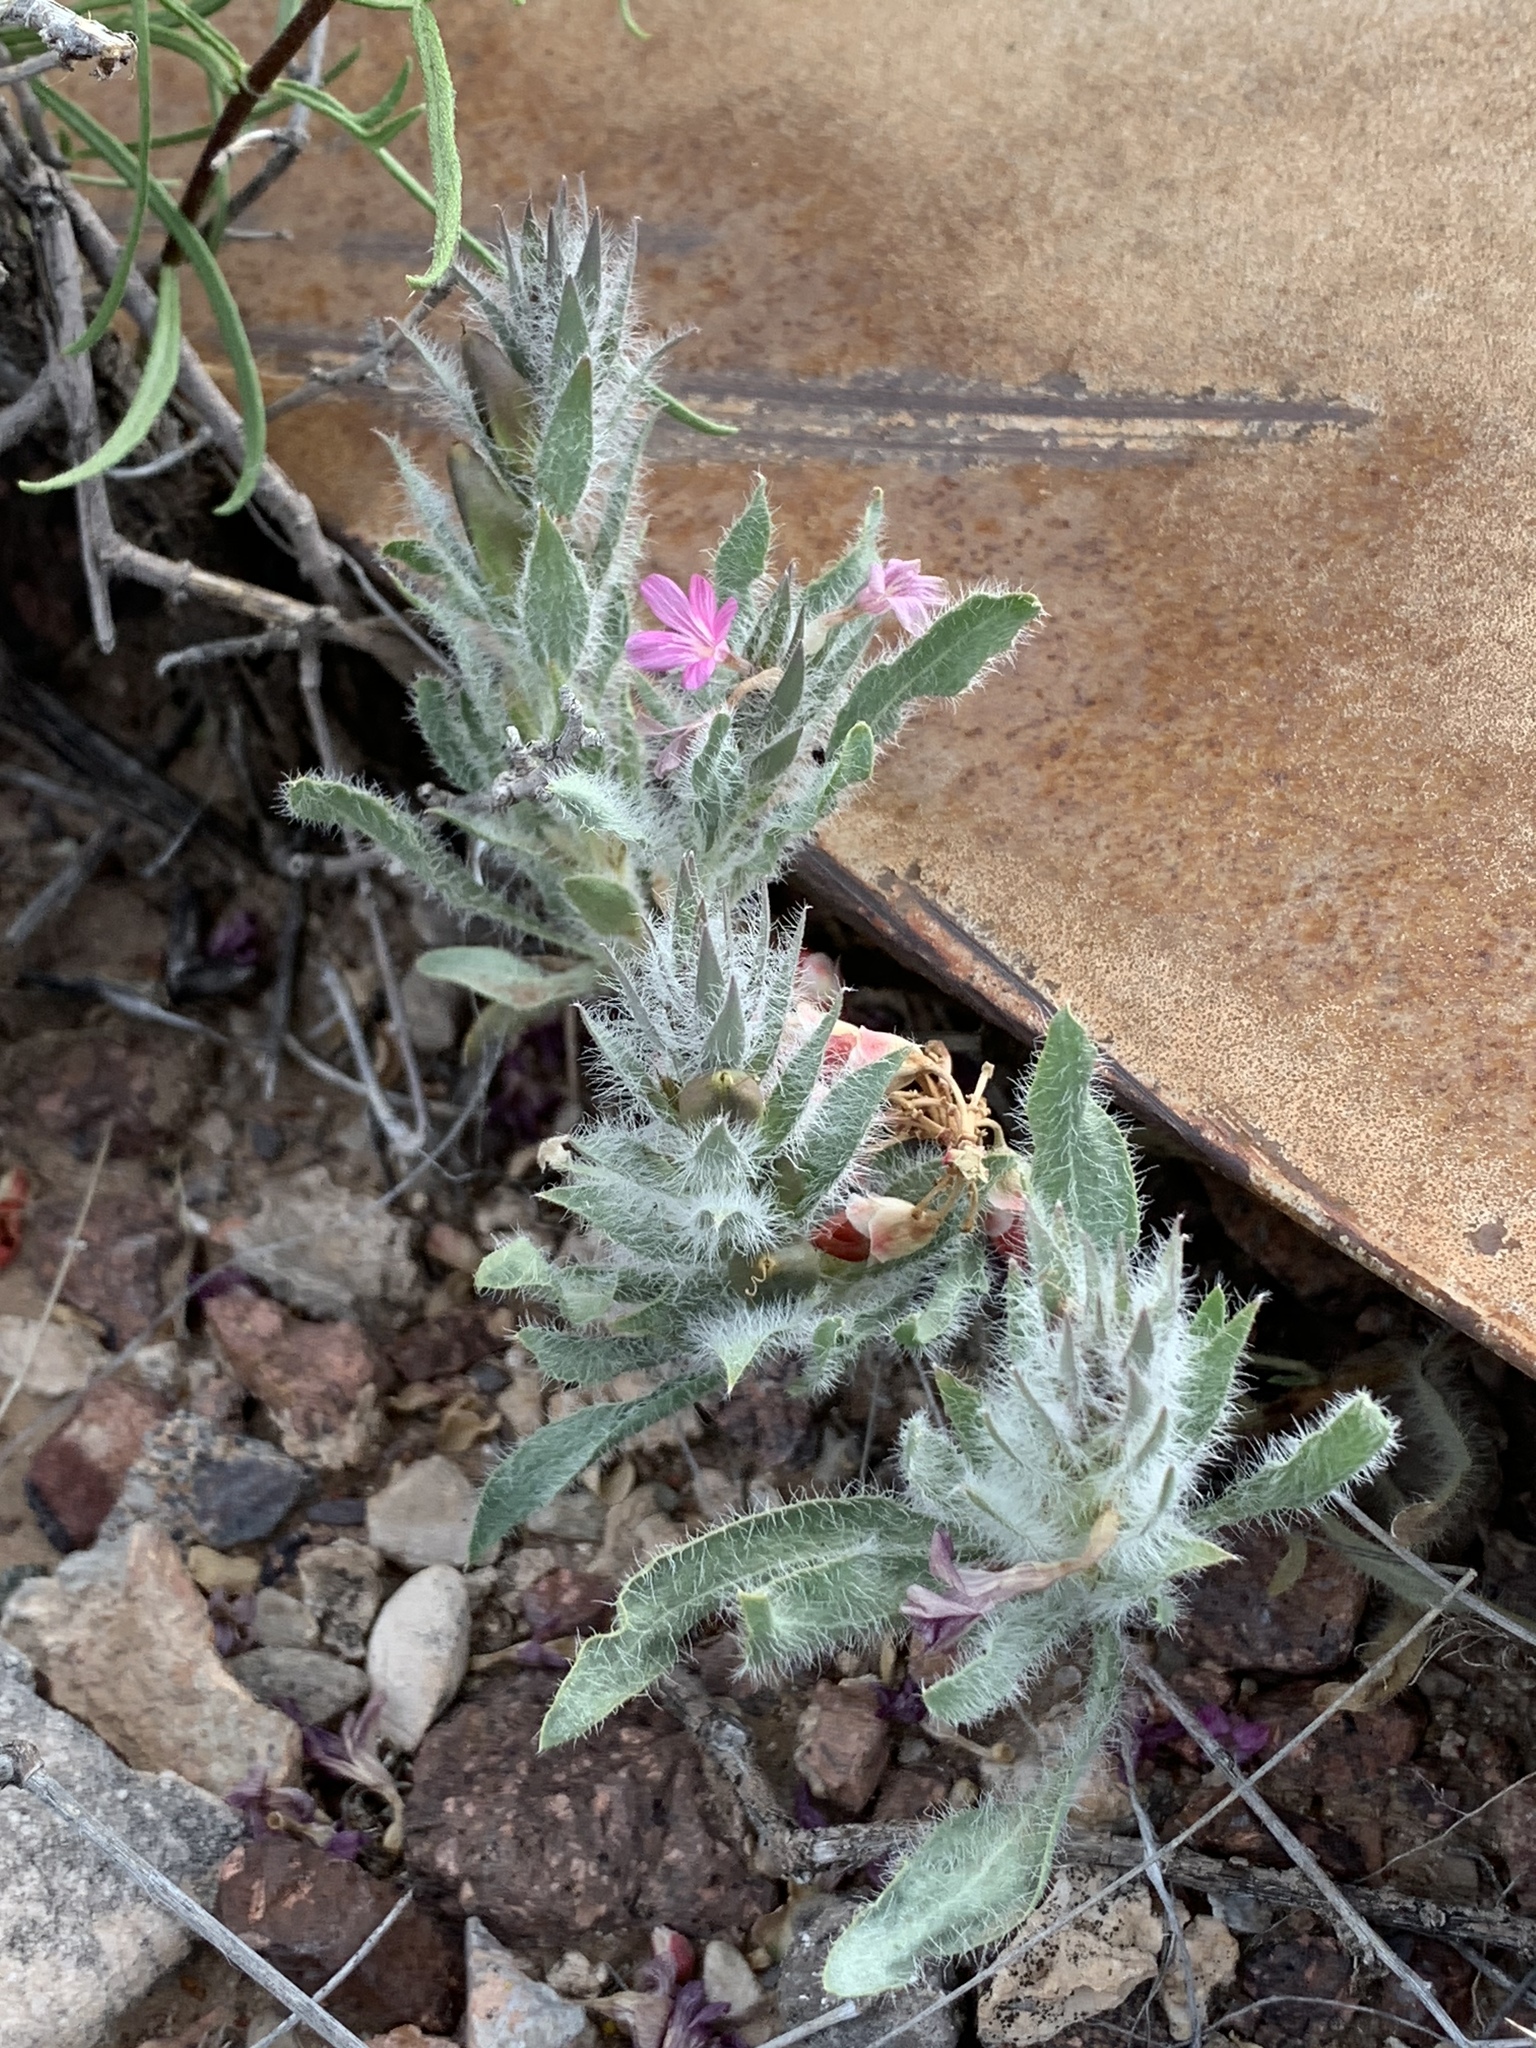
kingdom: Plantae
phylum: Tracheophyta
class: Magnoliopsida
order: Lamiales
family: Acanthaceae
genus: Stenandrium
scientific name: Stenandrium barbatum
